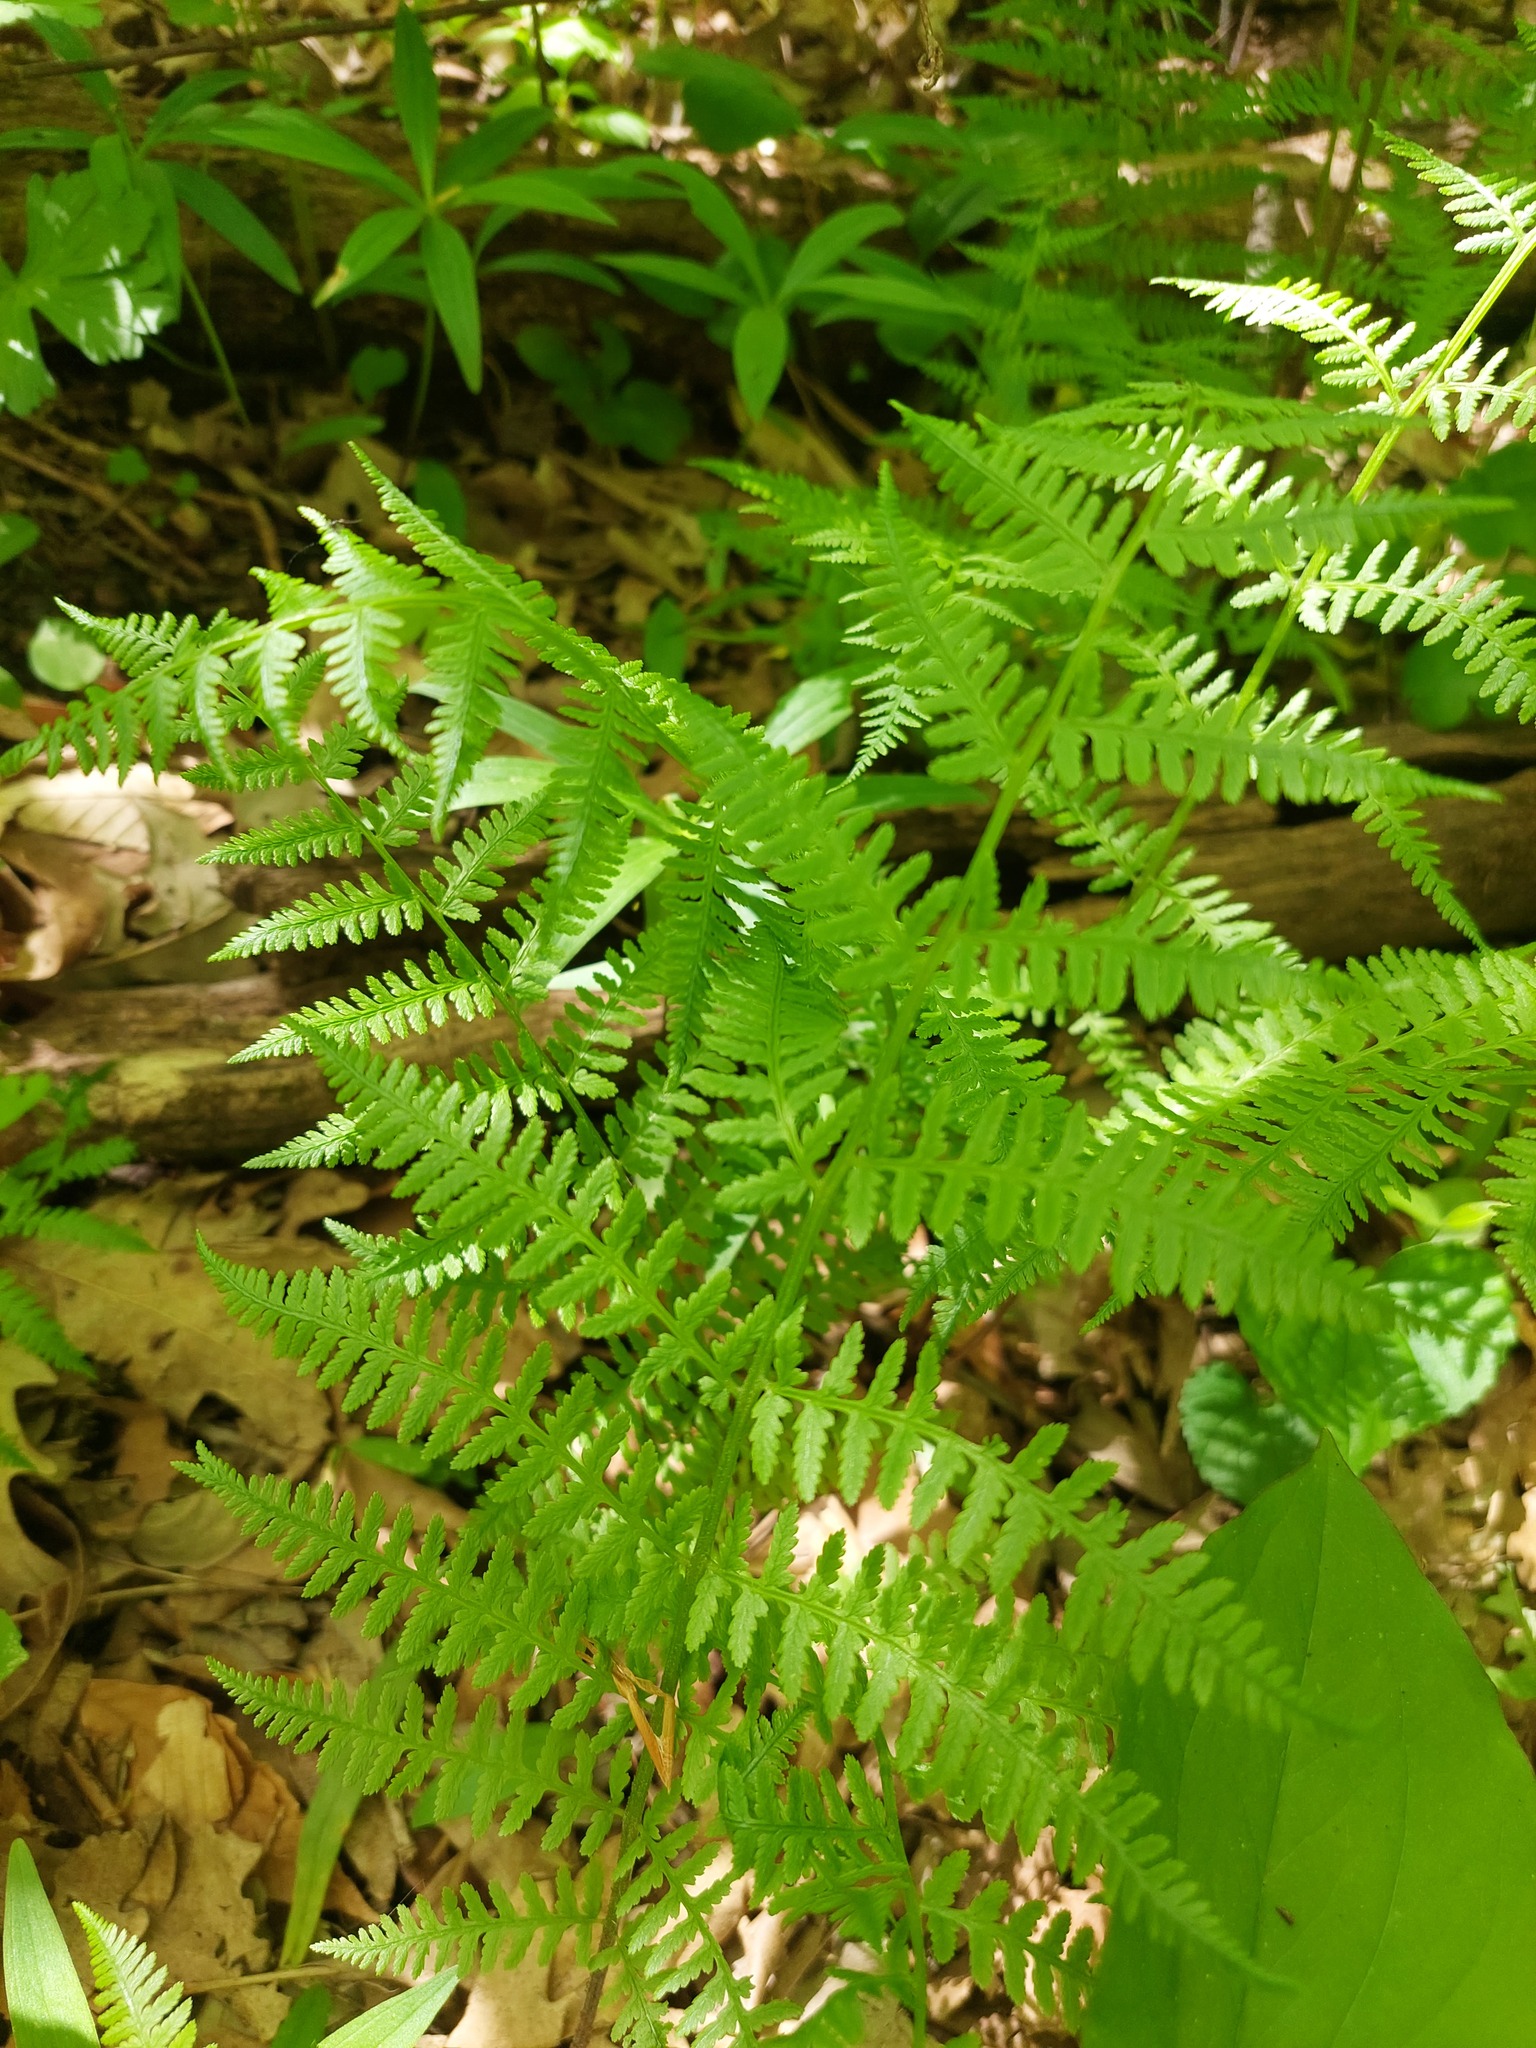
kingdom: Plantae
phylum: Tracheophyta
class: Polypodiopsida
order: Polypodiales
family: Athyriaceae
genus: Athyrium
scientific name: Athyrium angustum
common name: Northern lady fern
